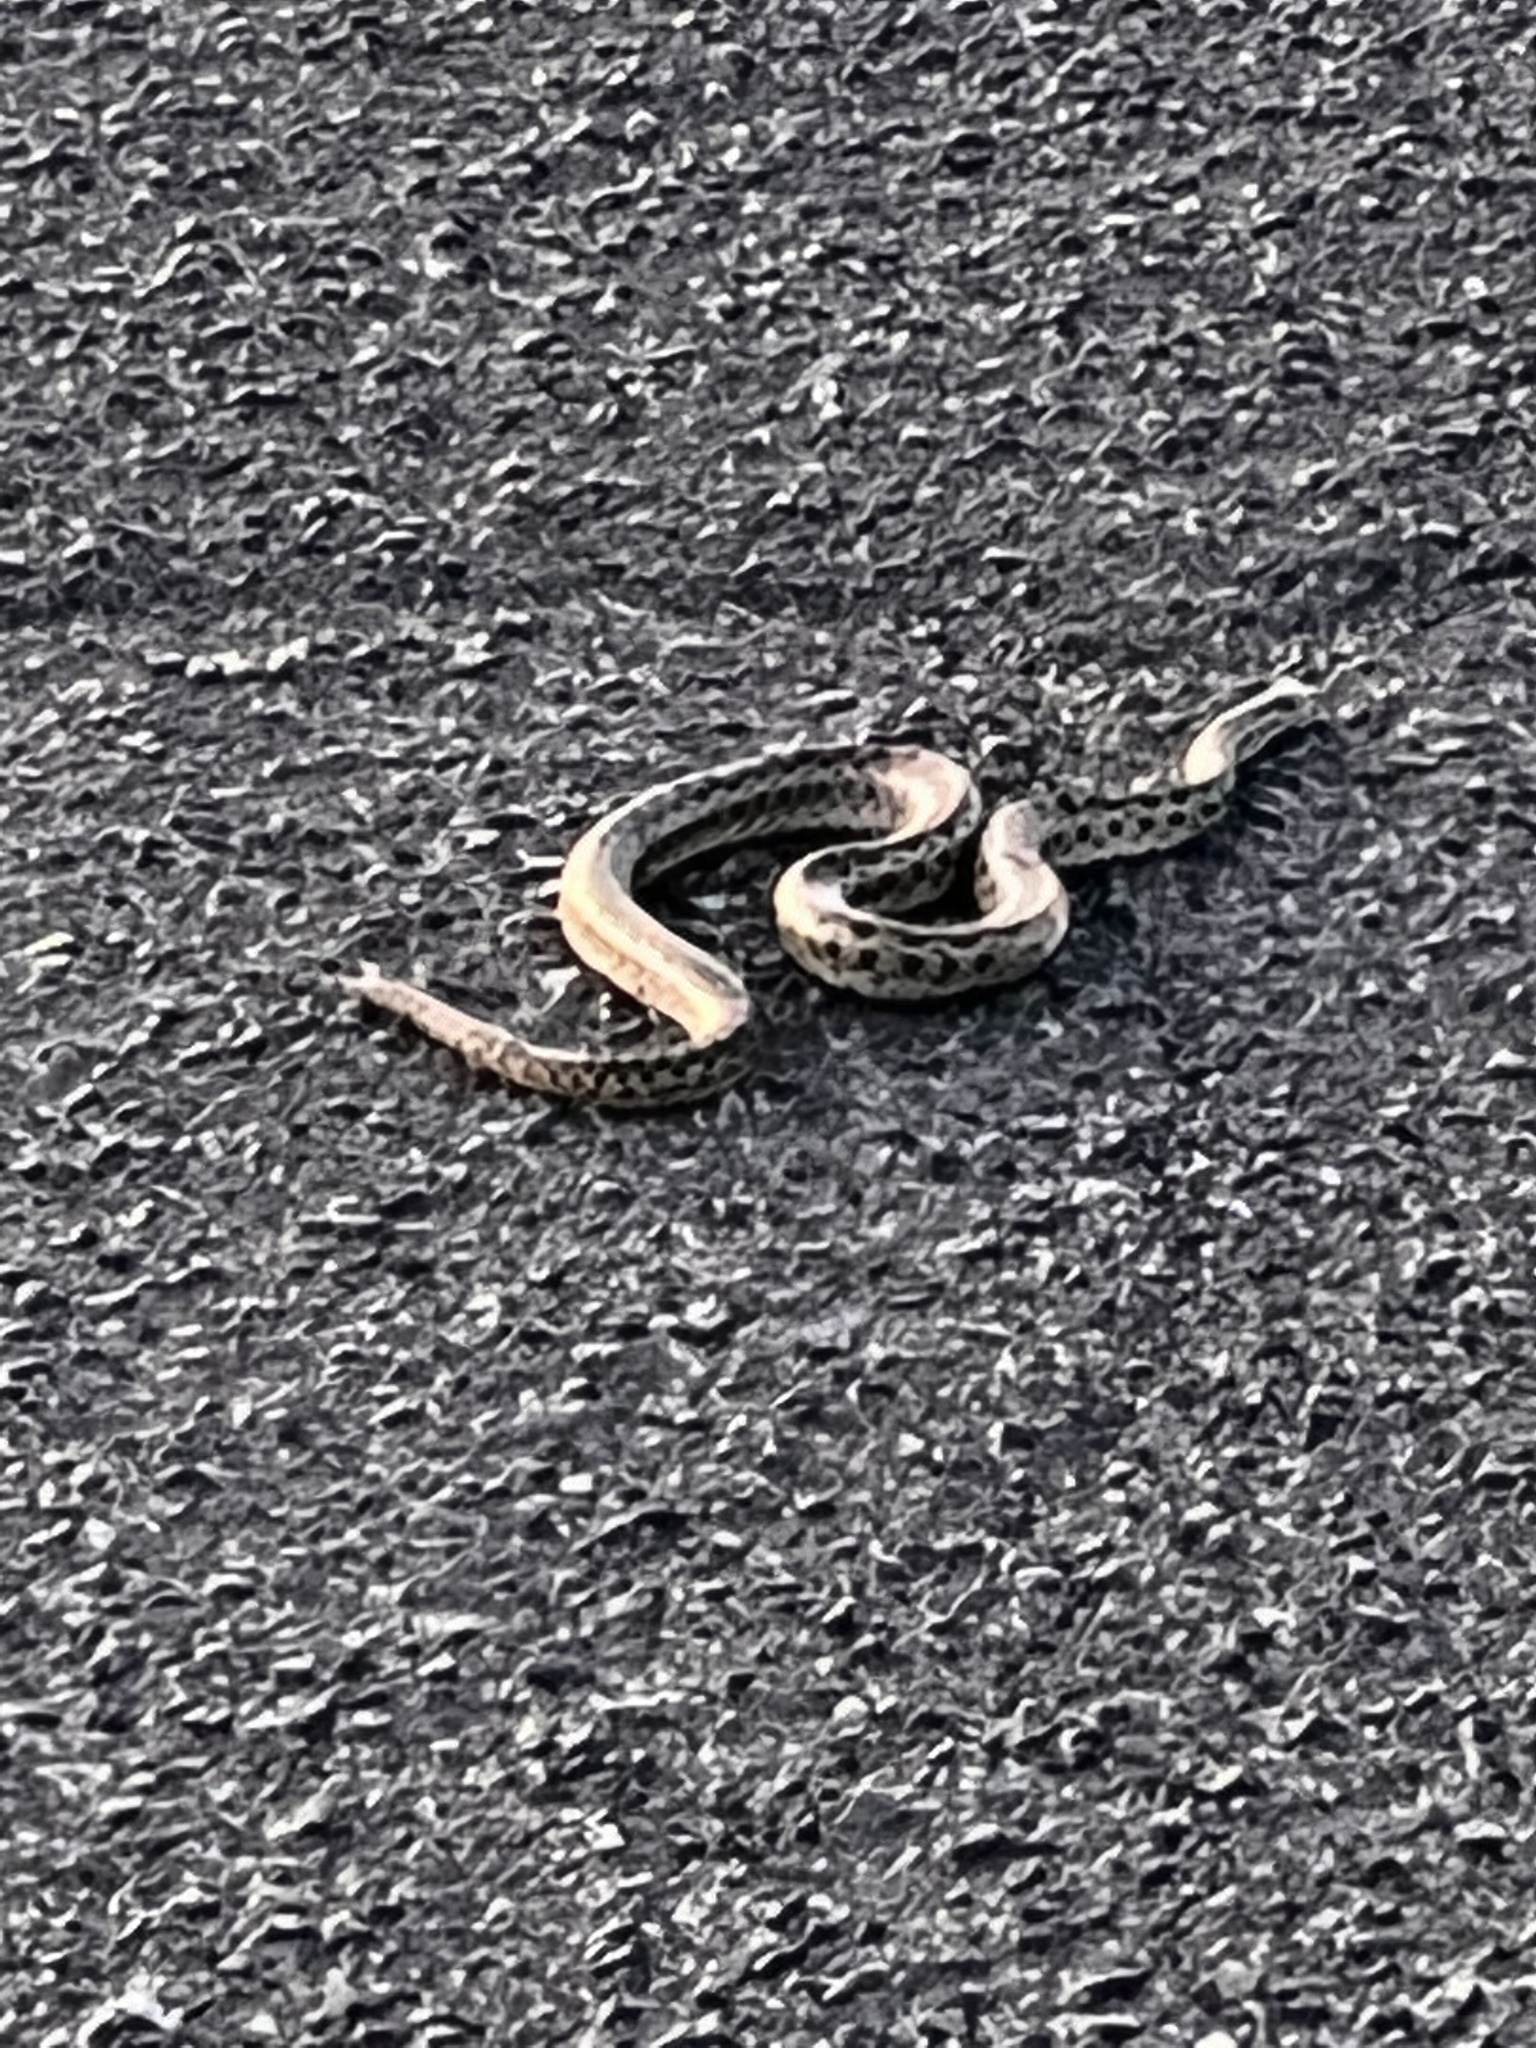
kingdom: Animalia
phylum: Chordata
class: Squamata
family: Colubridae
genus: Pituophis
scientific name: Pituophis catenifer
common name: Gopher snake
